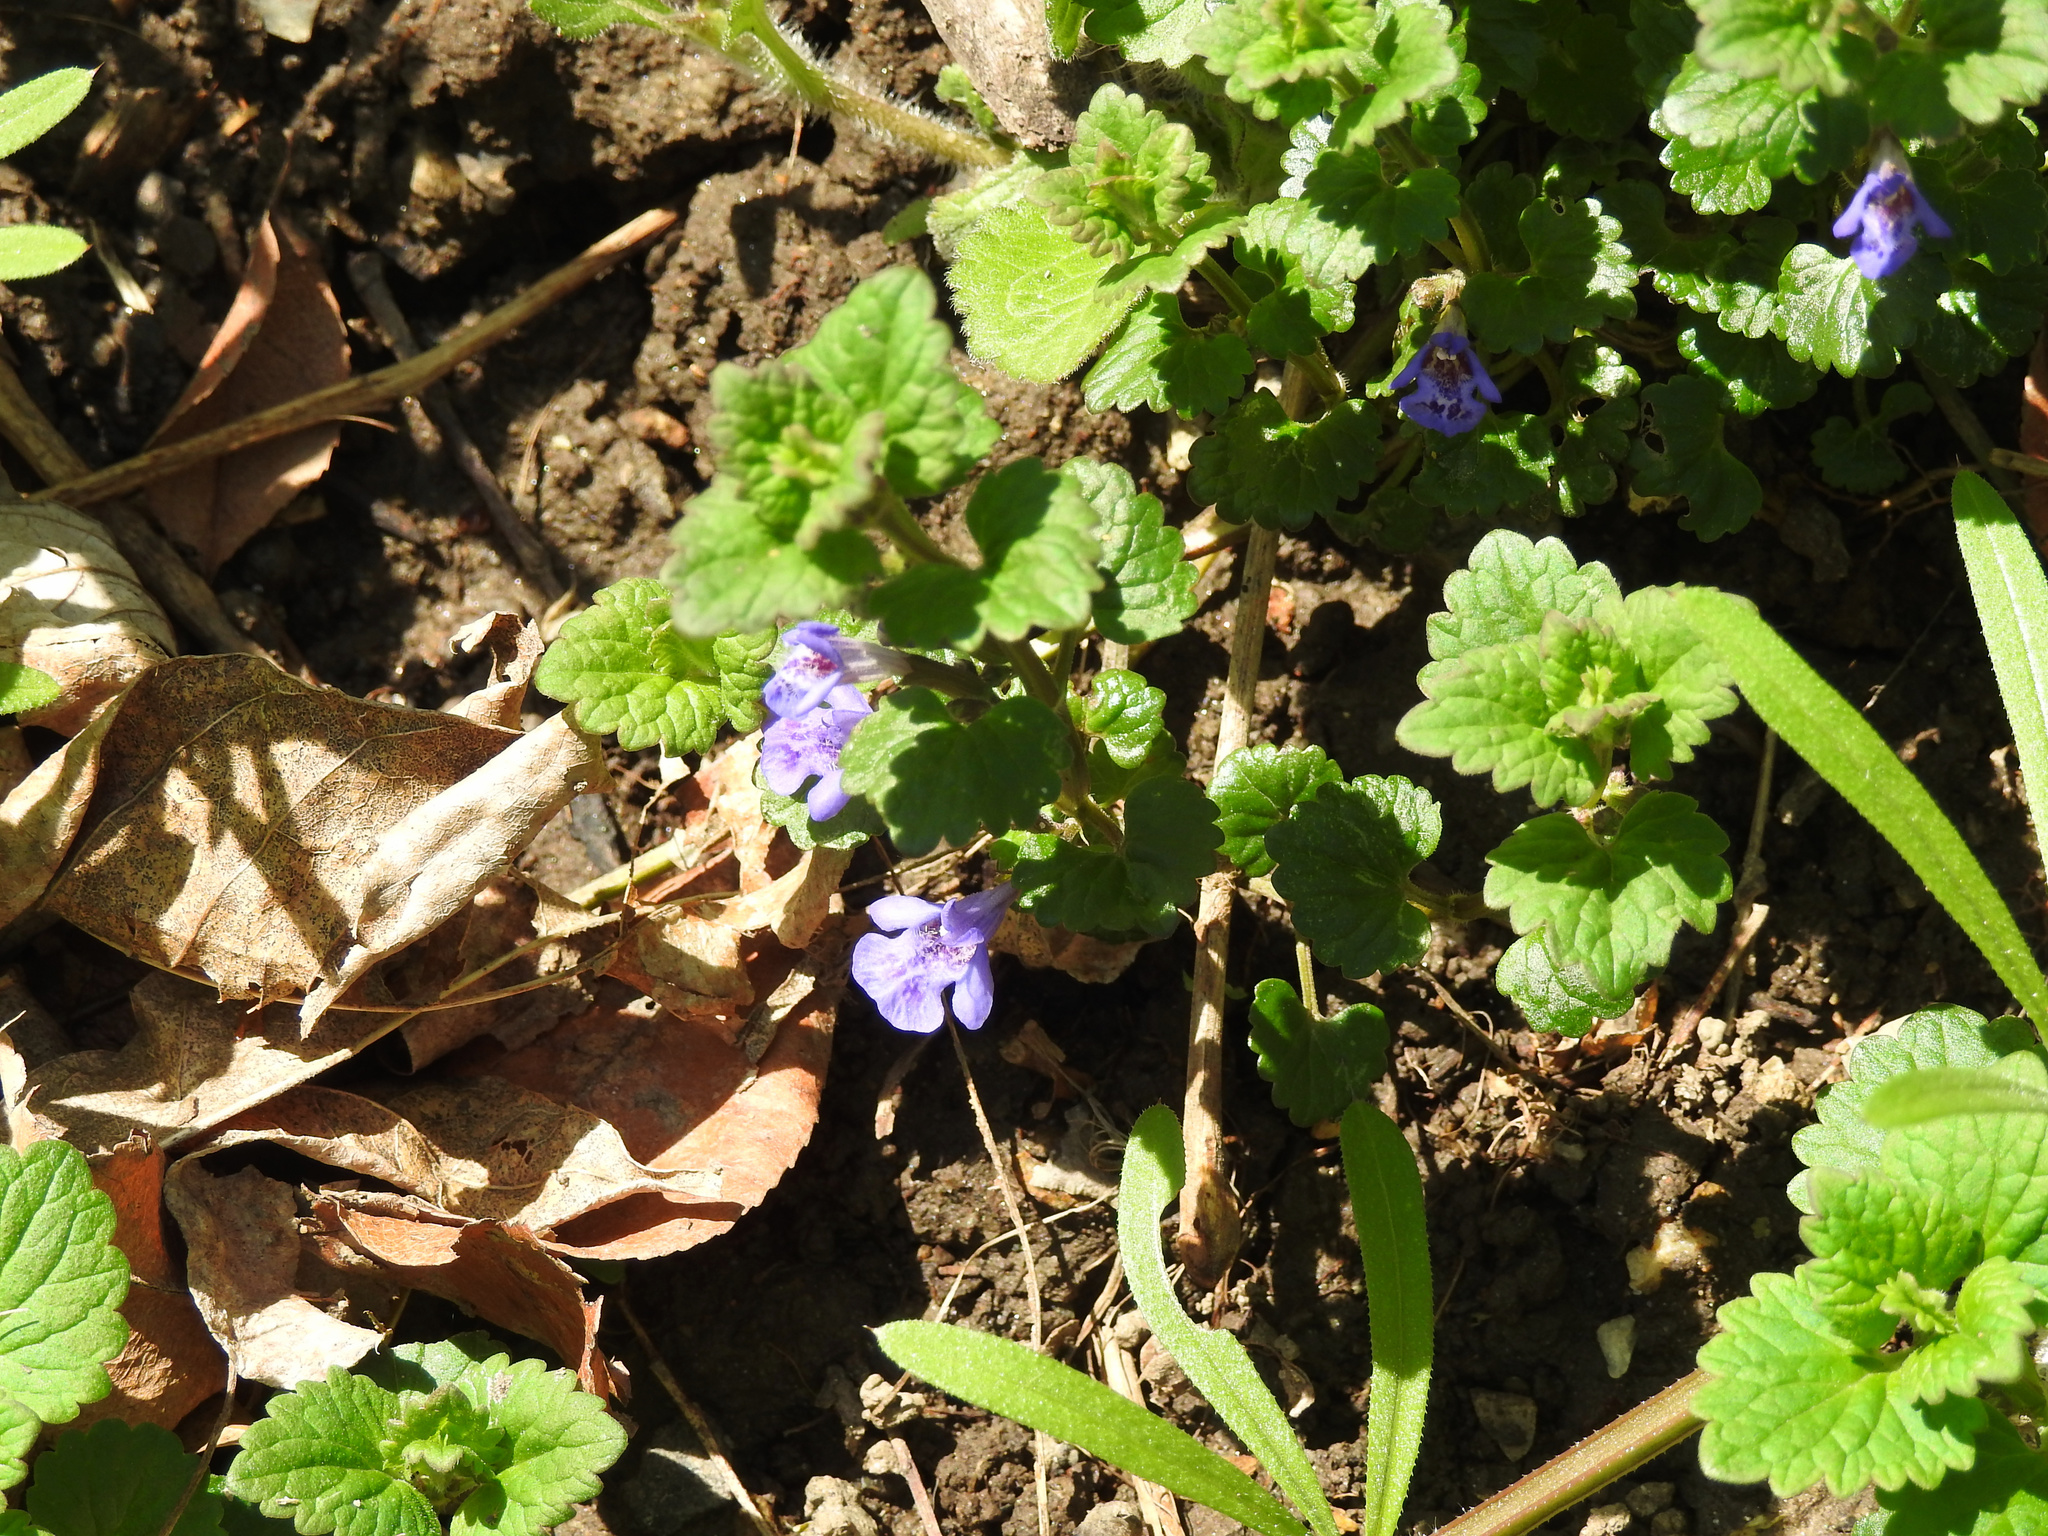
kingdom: Plantae
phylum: Tracheophyta
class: Magnoliopsida
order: Lamiales
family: Lamiaceae
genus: Glechoma
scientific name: Glechoma hederacea
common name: Ground ivy
